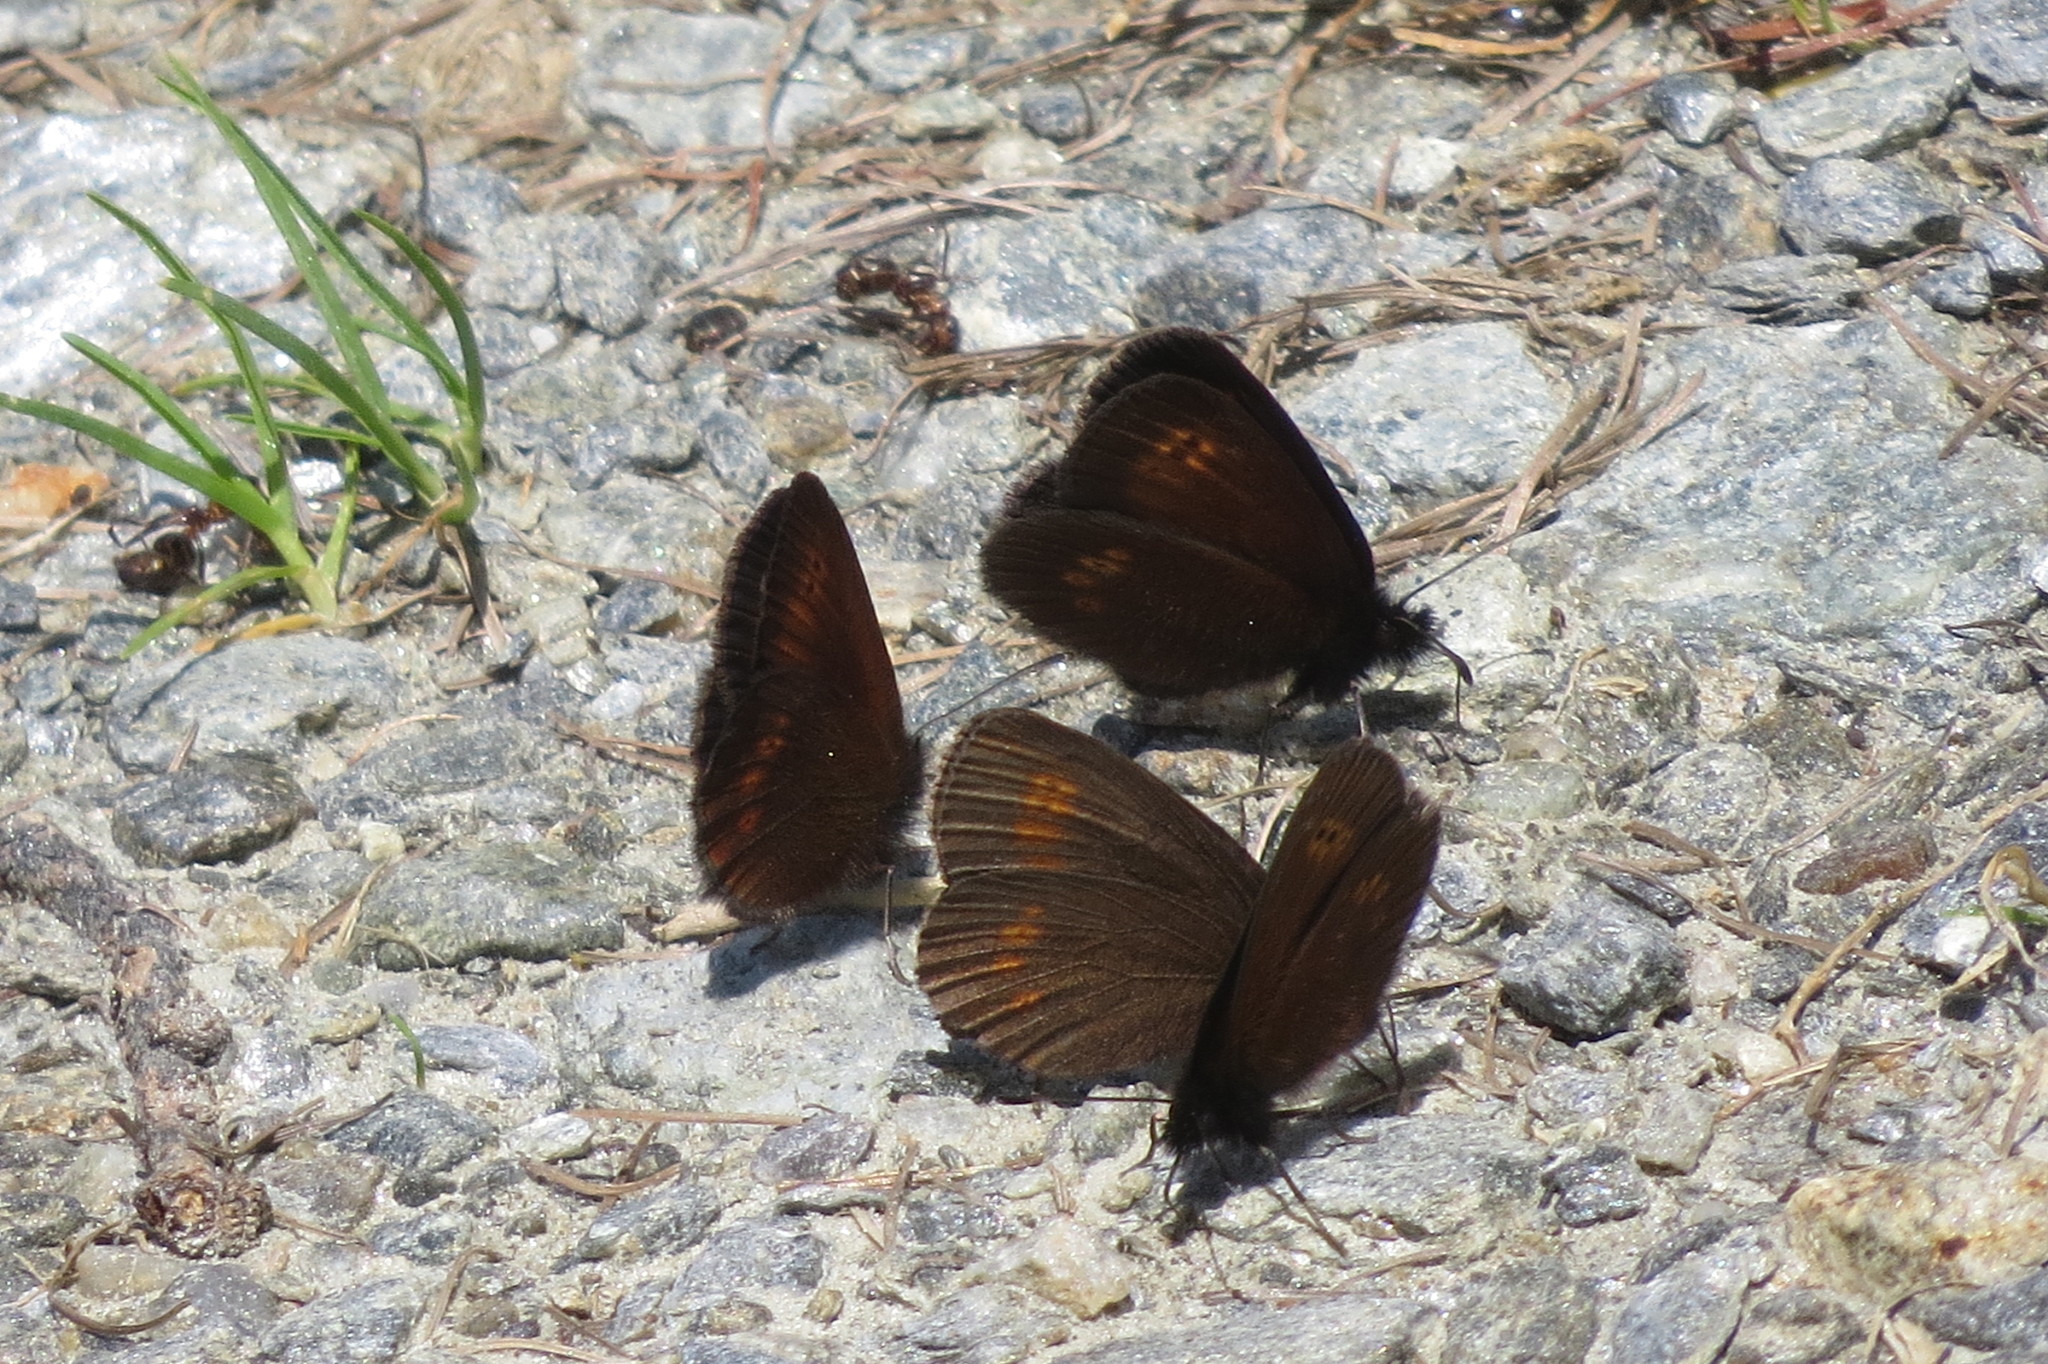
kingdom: Animalia
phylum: Arthropoda
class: Insecta
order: Lepidoptera
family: Nymphalidae
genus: Erebia
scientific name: Erebia melampus
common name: Lesser mountain ringlet
